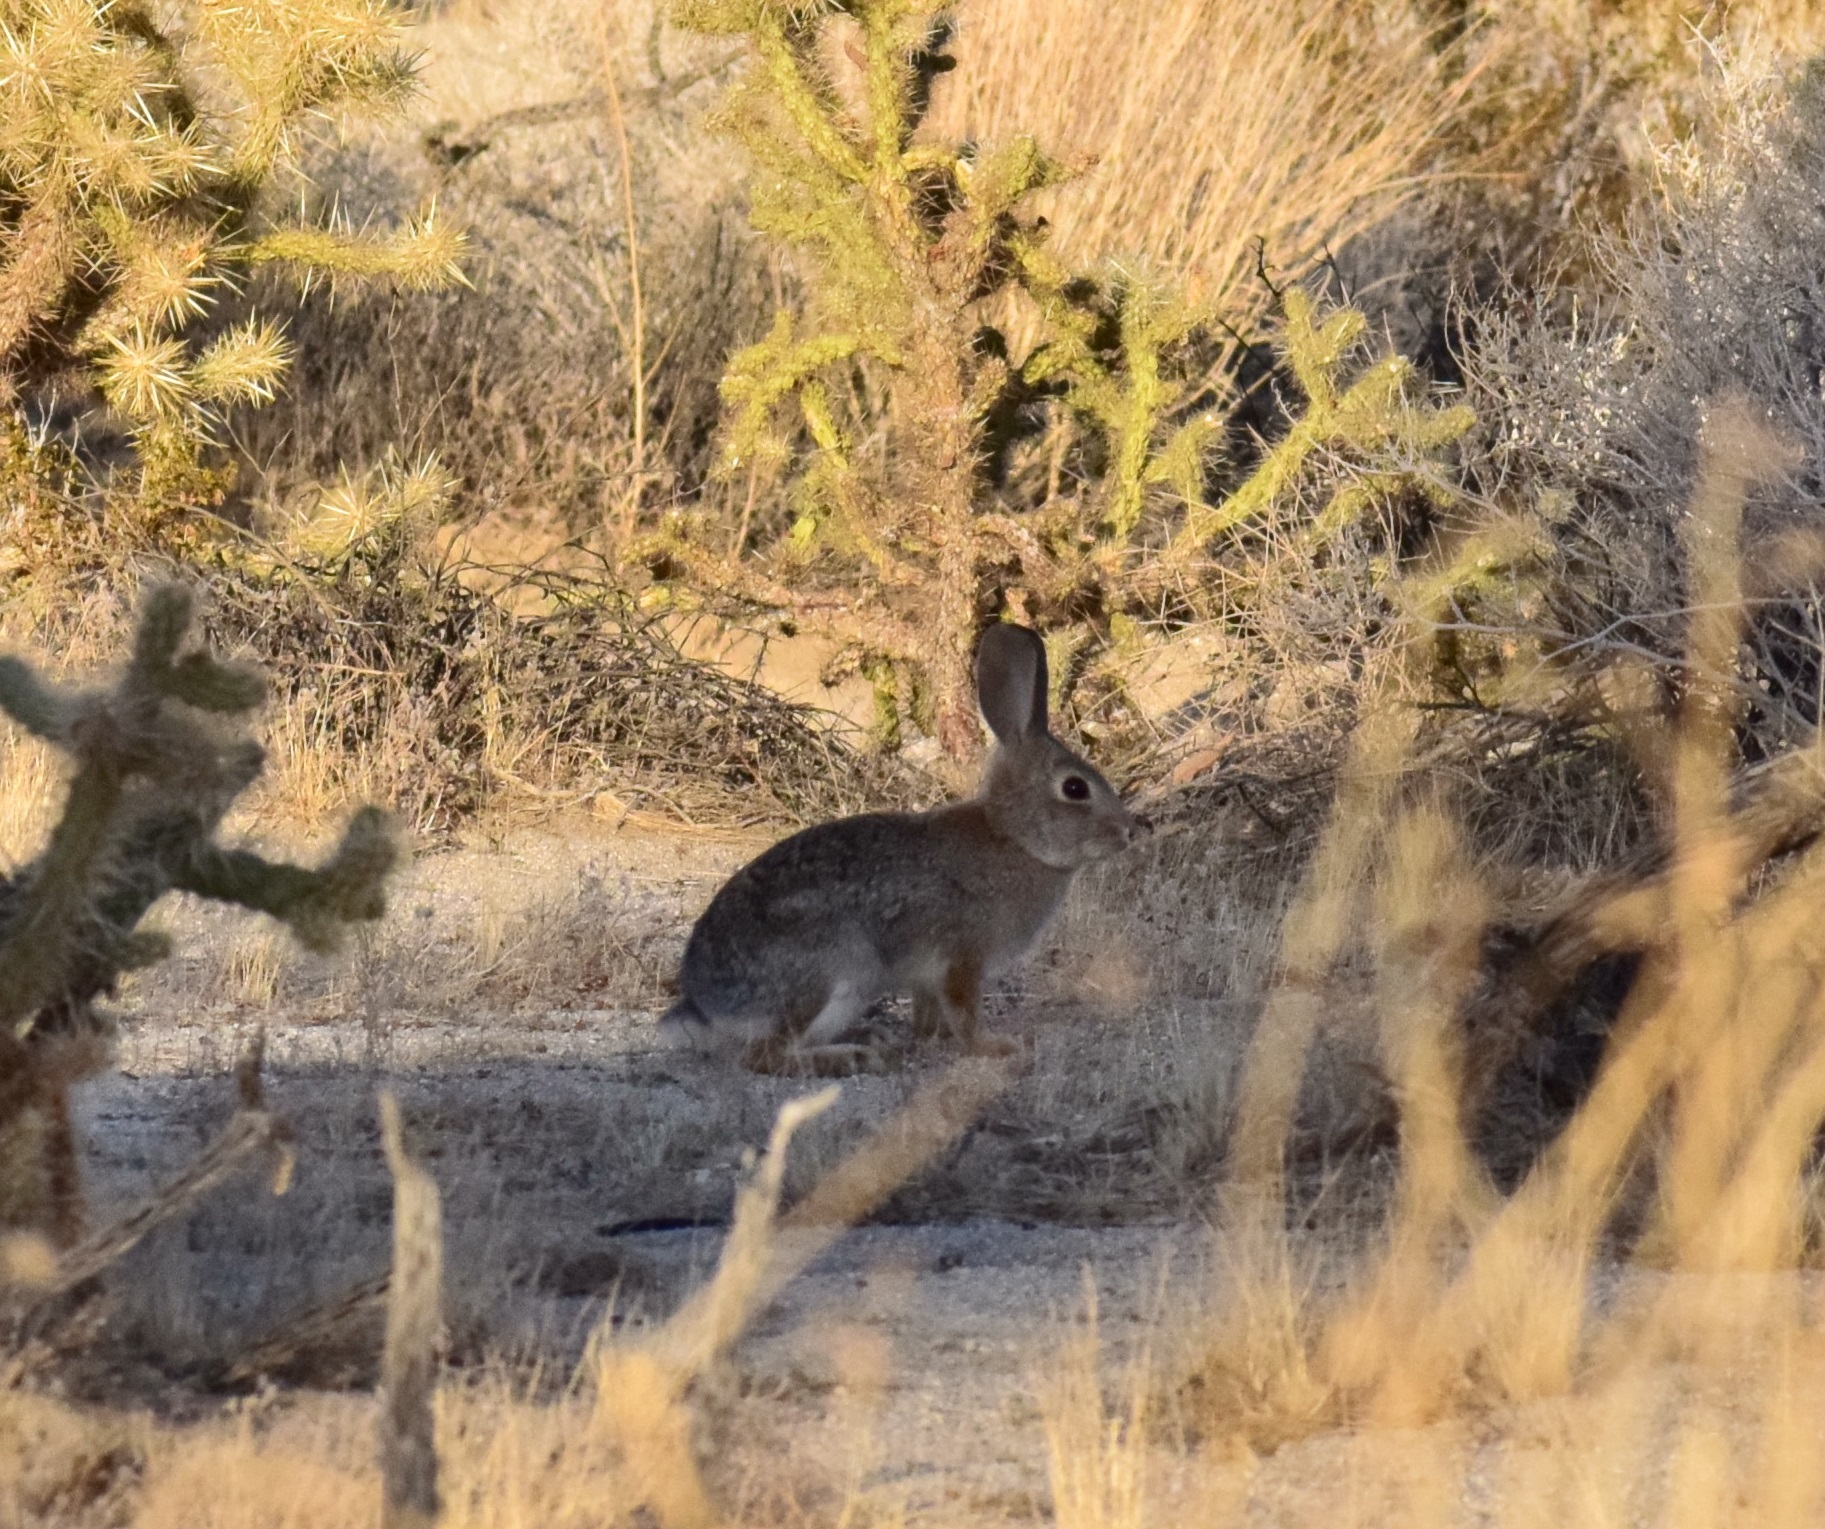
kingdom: Animalia
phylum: Chordata
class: Mammalia
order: Lagomorpha
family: Leporidae
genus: Sylvilagus
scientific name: Sylvilagus audubonii
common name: Desert cottontail
